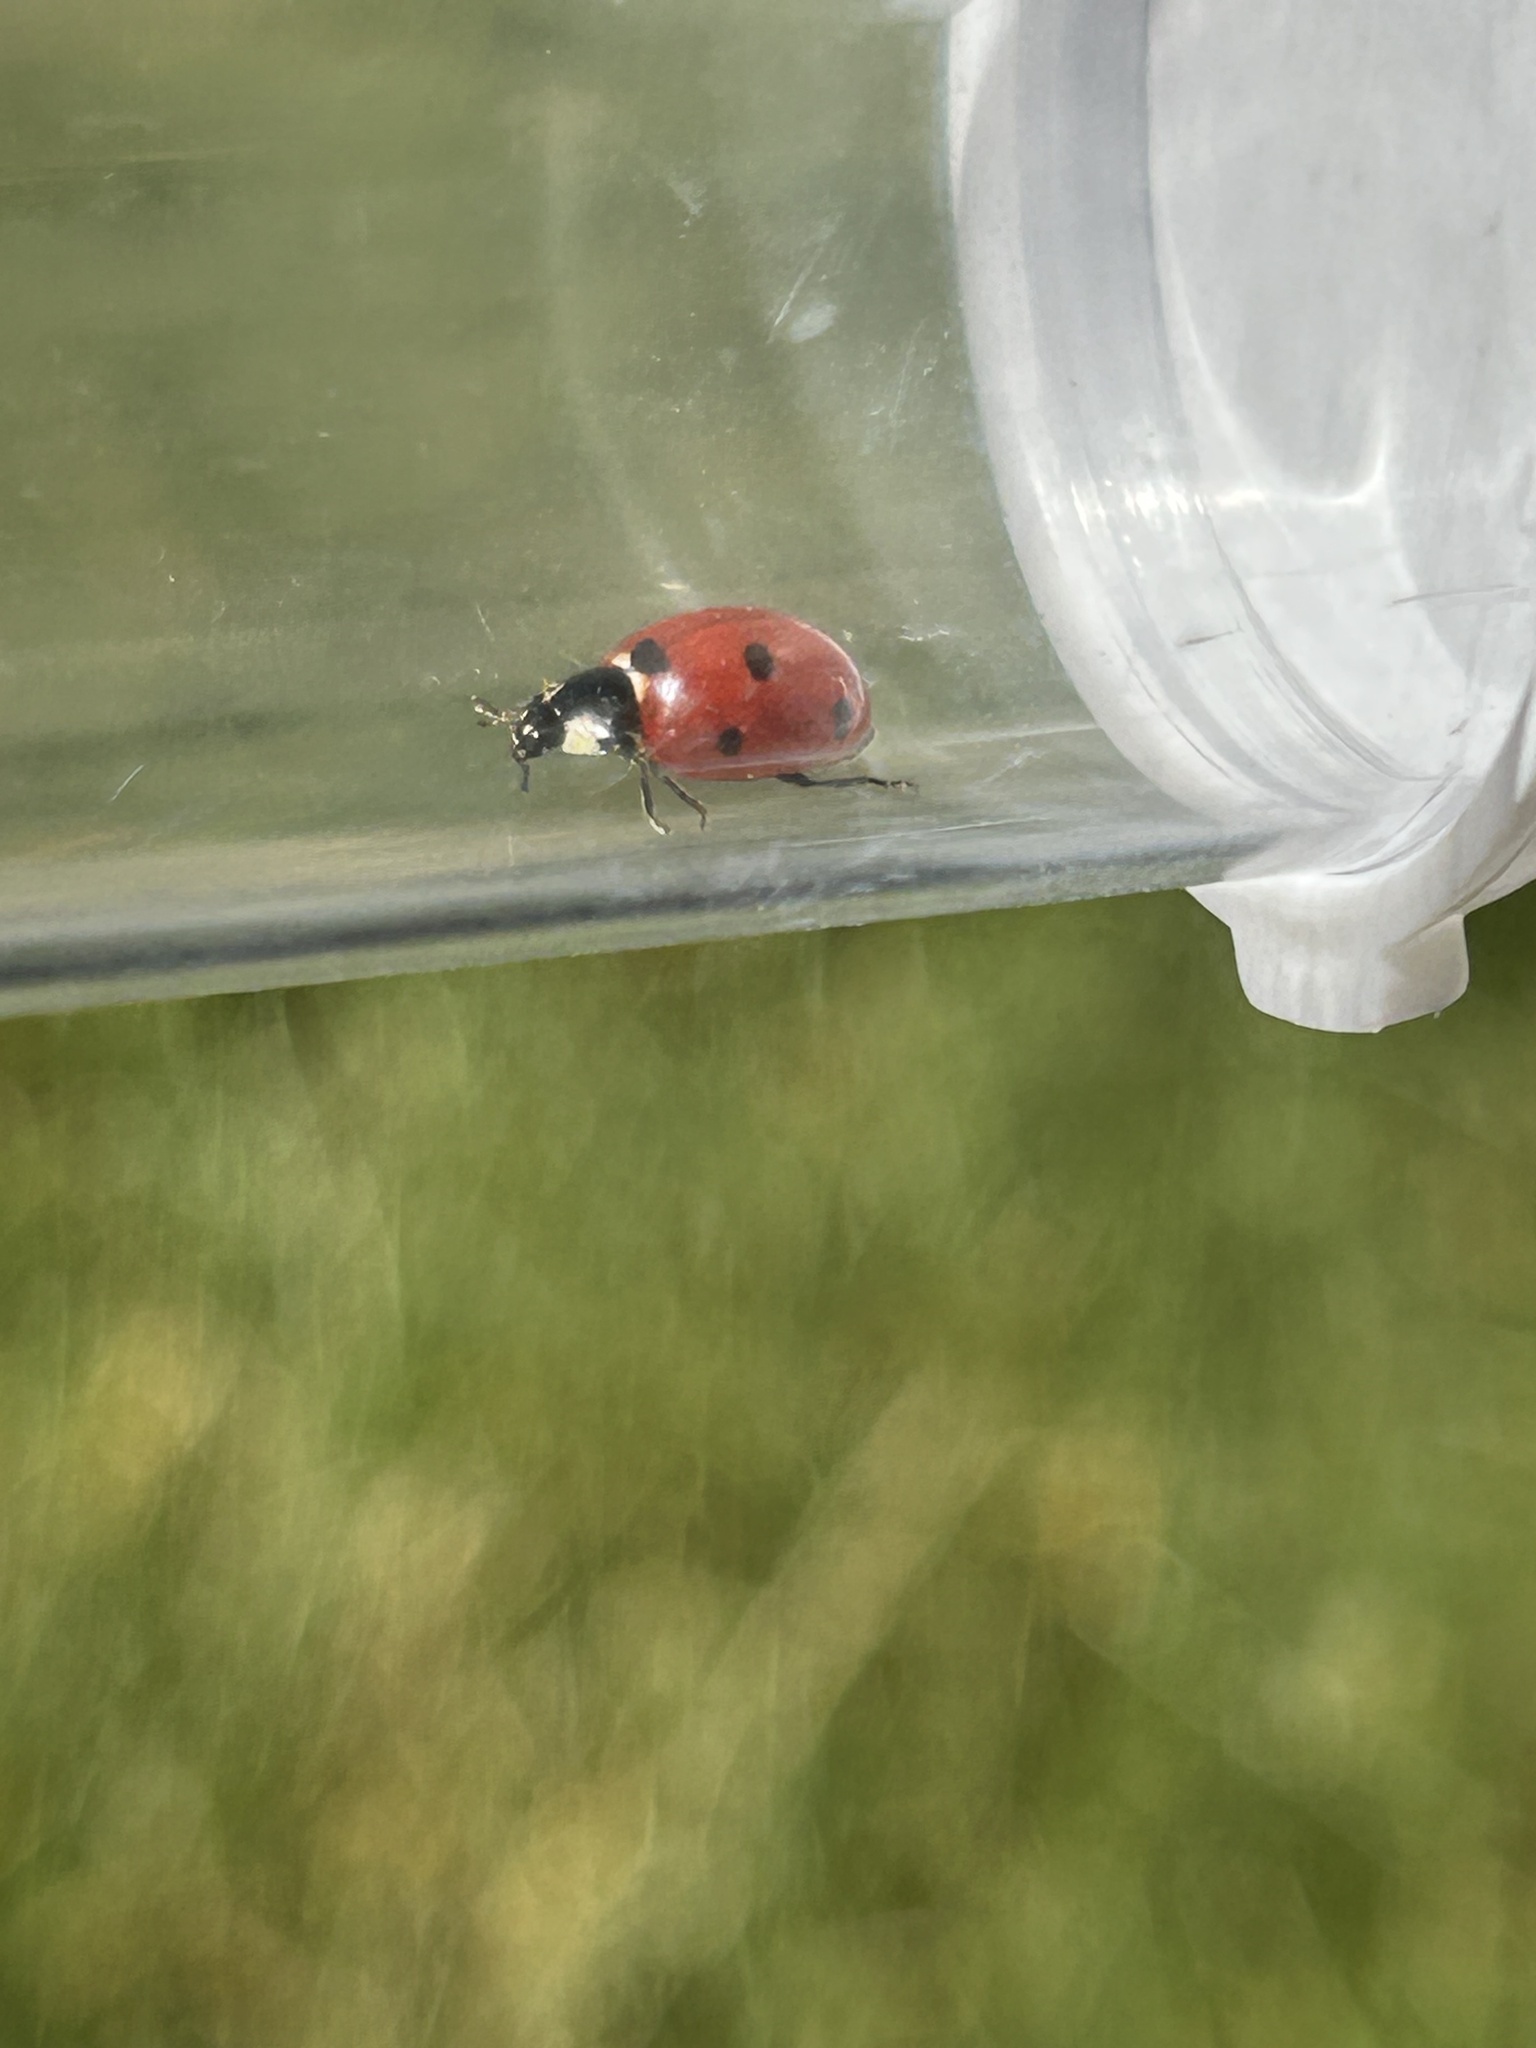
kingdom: Animalia
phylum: Arthropoda
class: Insecta
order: Coleoptera
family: Coccinellidae
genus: Coccinella
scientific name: Coccinella septempunctata
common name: Sevenspotted lady beetle
